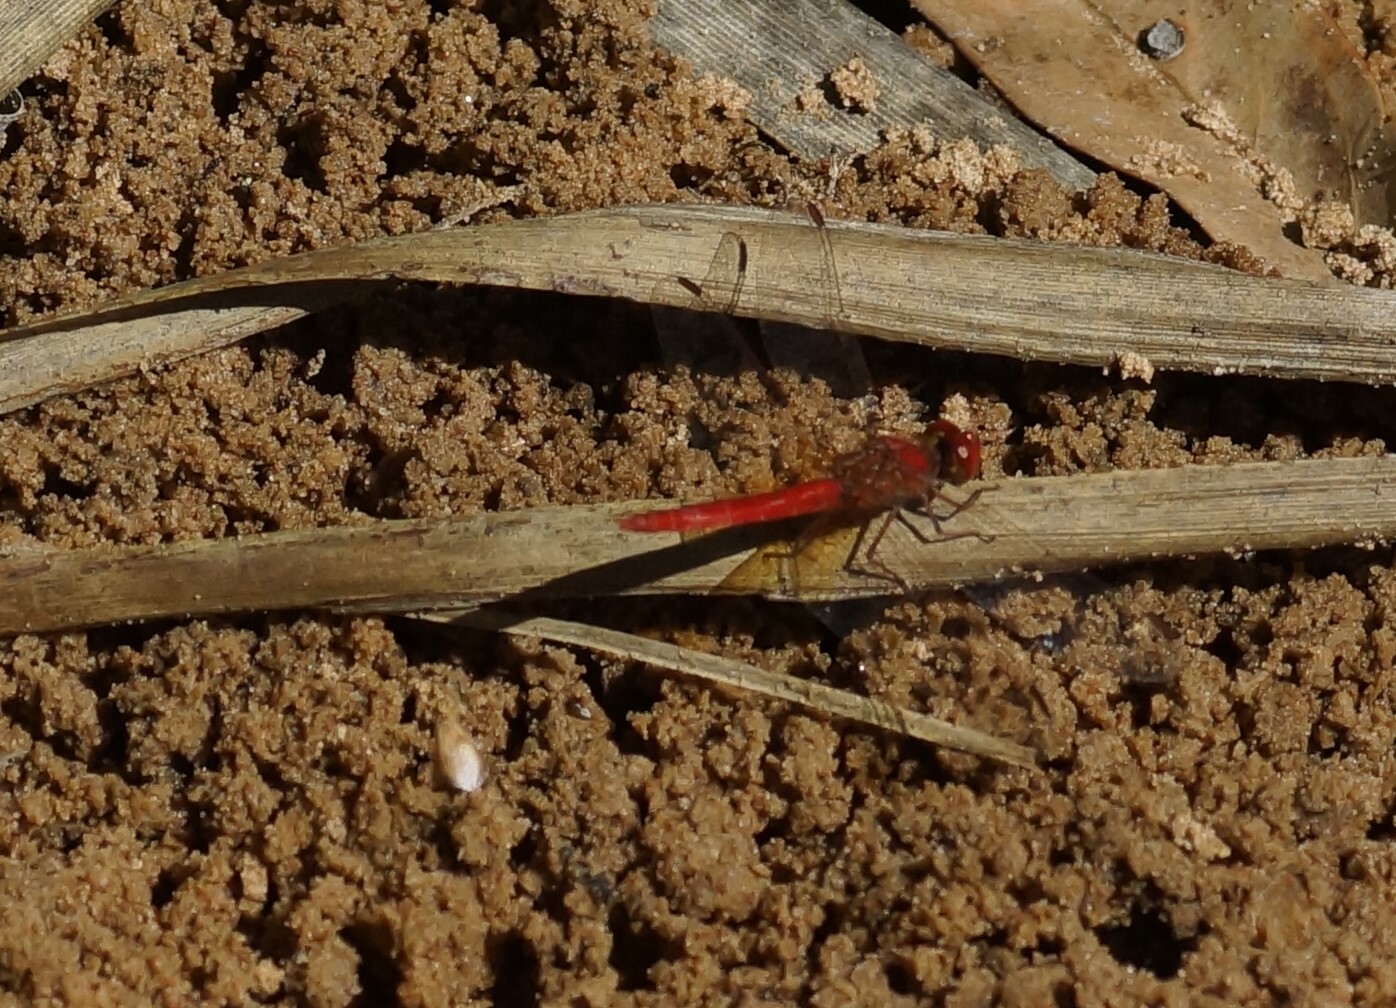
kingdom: Animalia
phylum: Arthropoda
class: Insecta
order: Odonata
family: Libellulidae
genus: Diplacodes
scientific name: Diplacodes haematodes
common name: Scarlet percher
